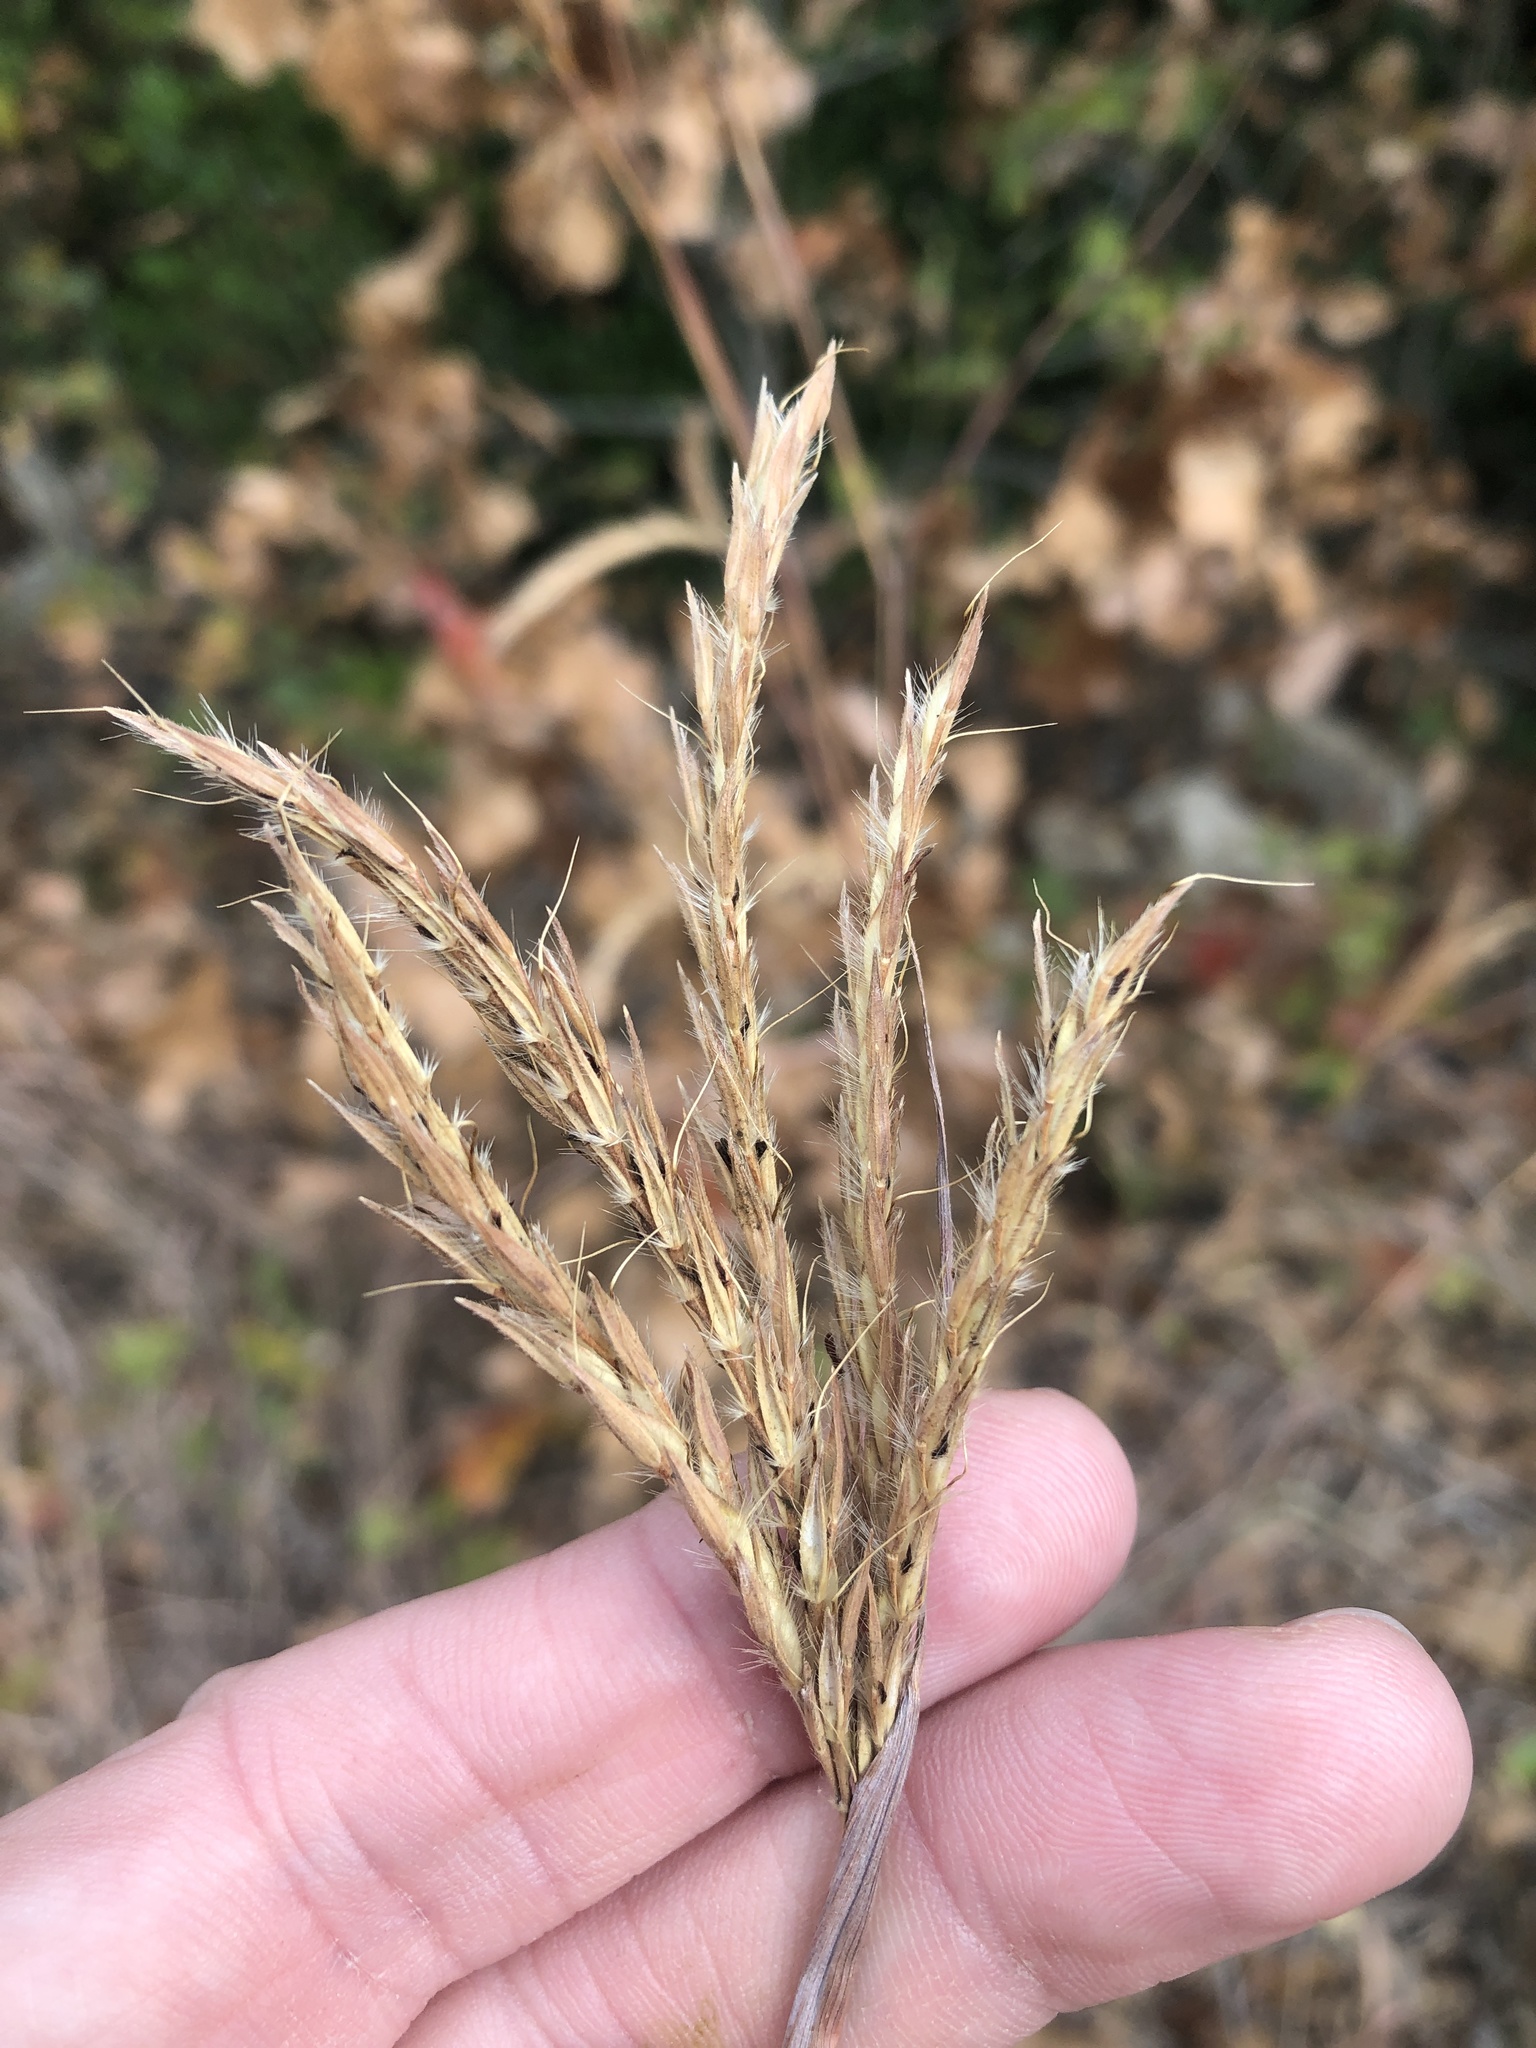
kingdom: Plantae
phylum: Tracheophyta
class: Liliopsida
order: Poales
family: Poaceae
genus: Andropogon
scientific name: Andropogon gerardi
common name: Big bluestem
